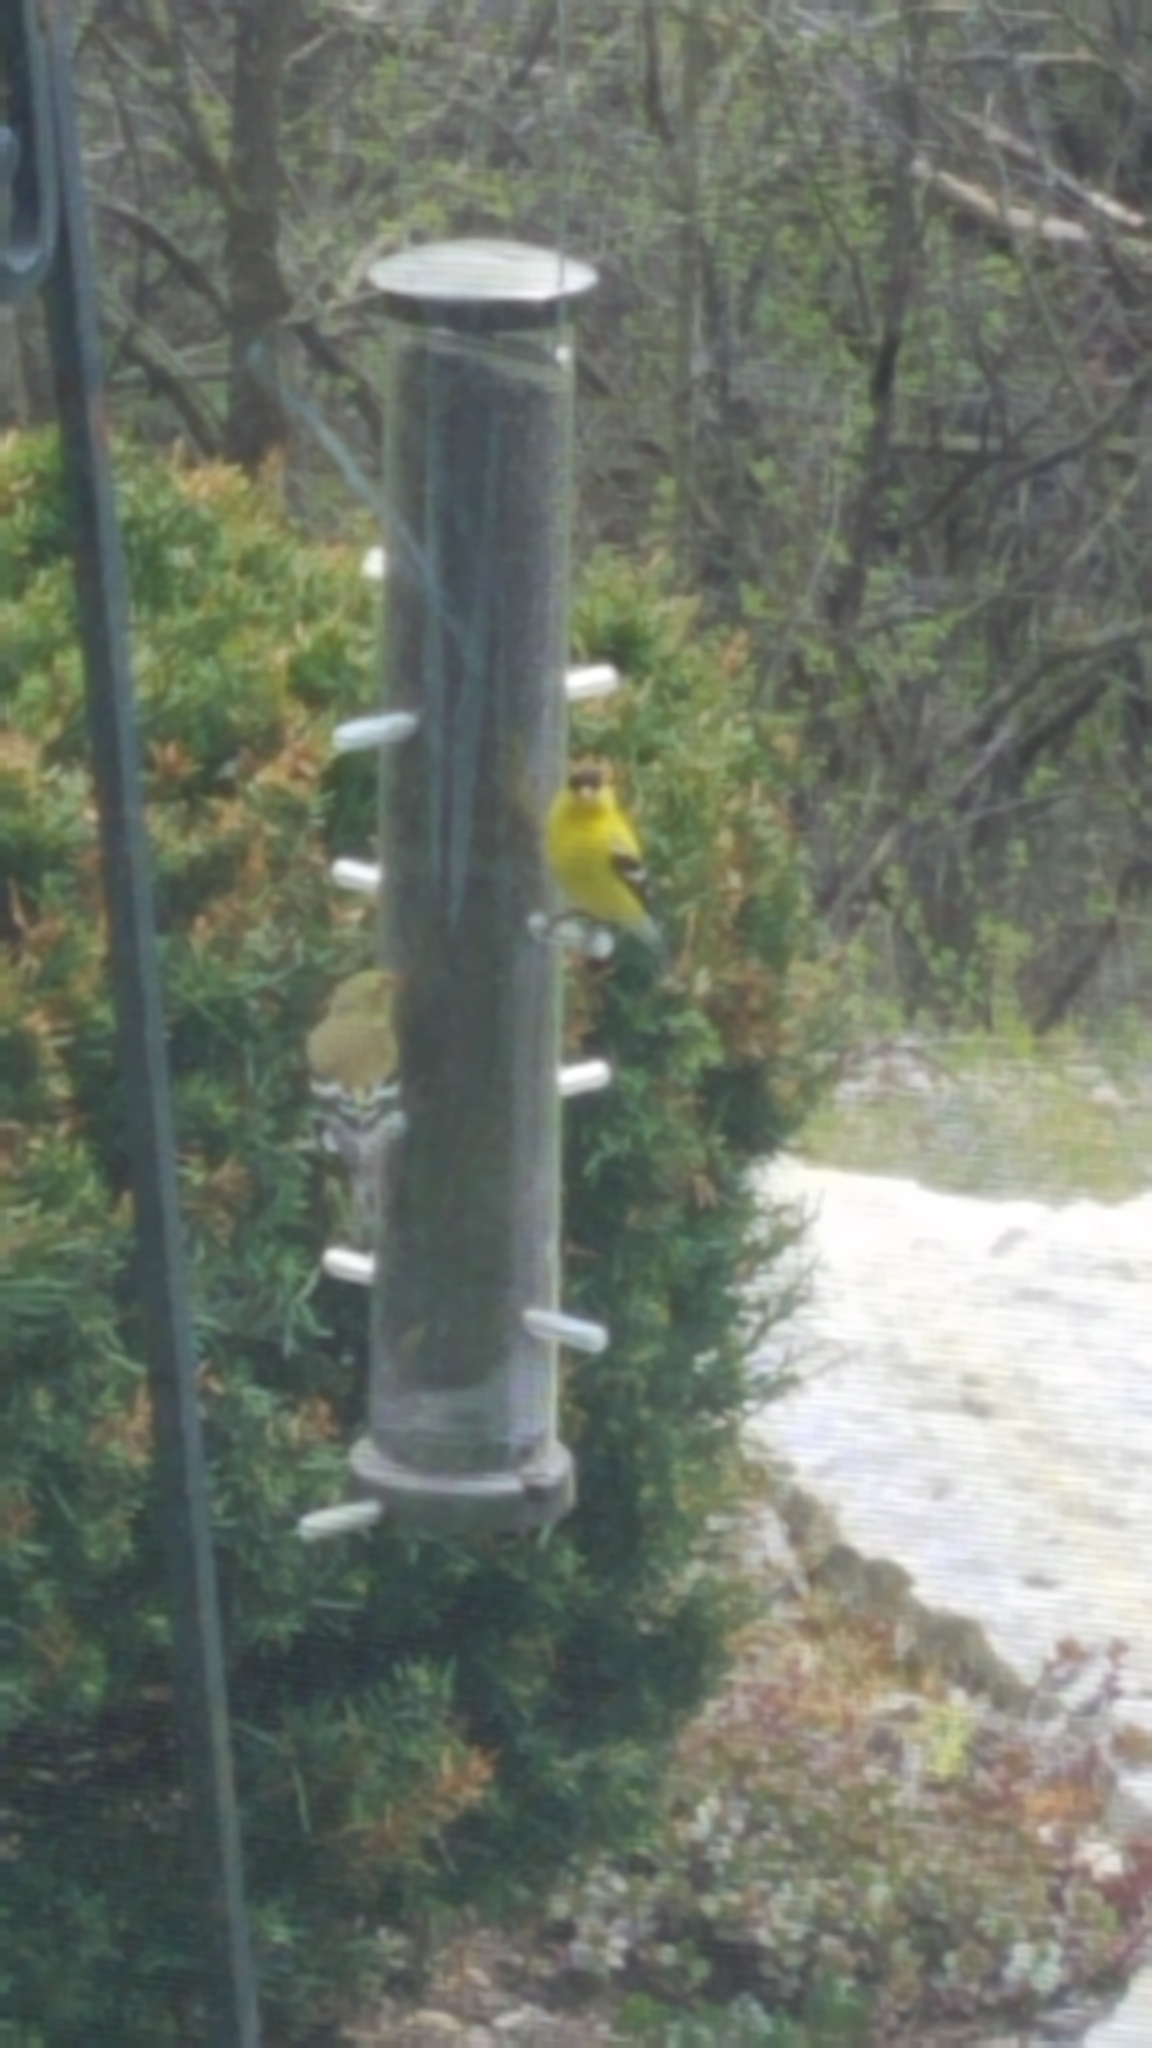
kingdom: Animalia
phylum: Chordata
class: Aves
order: Passeriformes
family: Fringillidae
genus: Spinus
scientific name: Spinus tristis
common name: American goldfinch
